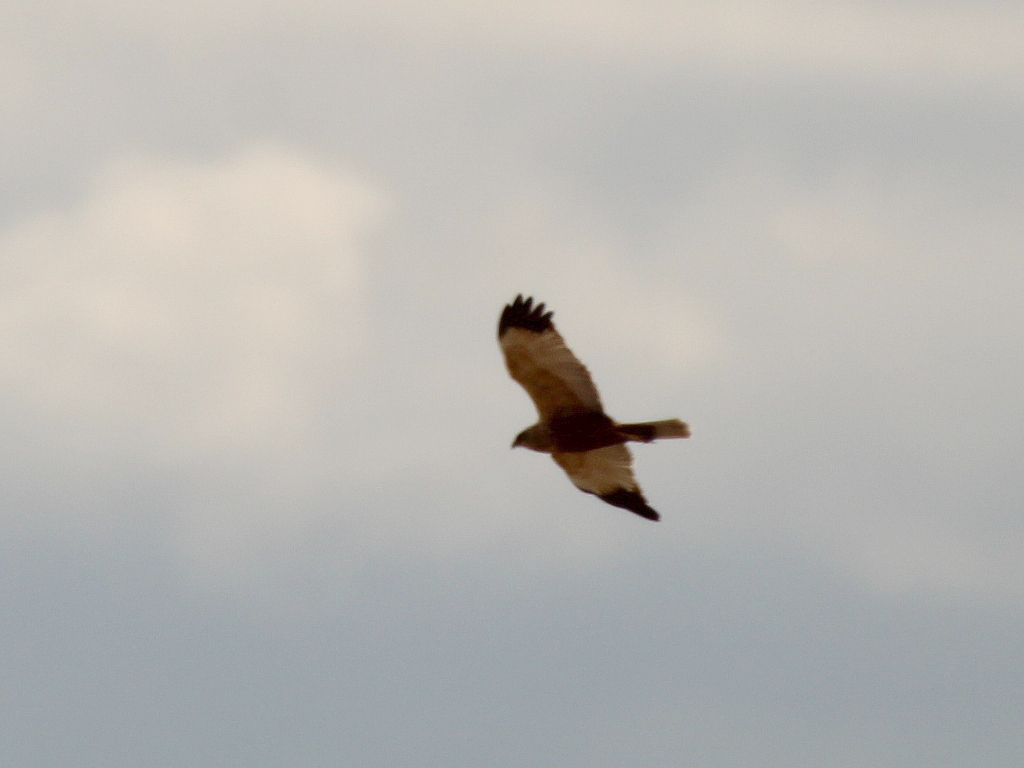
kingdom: Animalia
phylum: Chordata
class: Aves
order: Accipitriformes
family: Accipitridae
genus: Circus
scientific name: Circus aeruginosus
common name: Western marsh harrier
